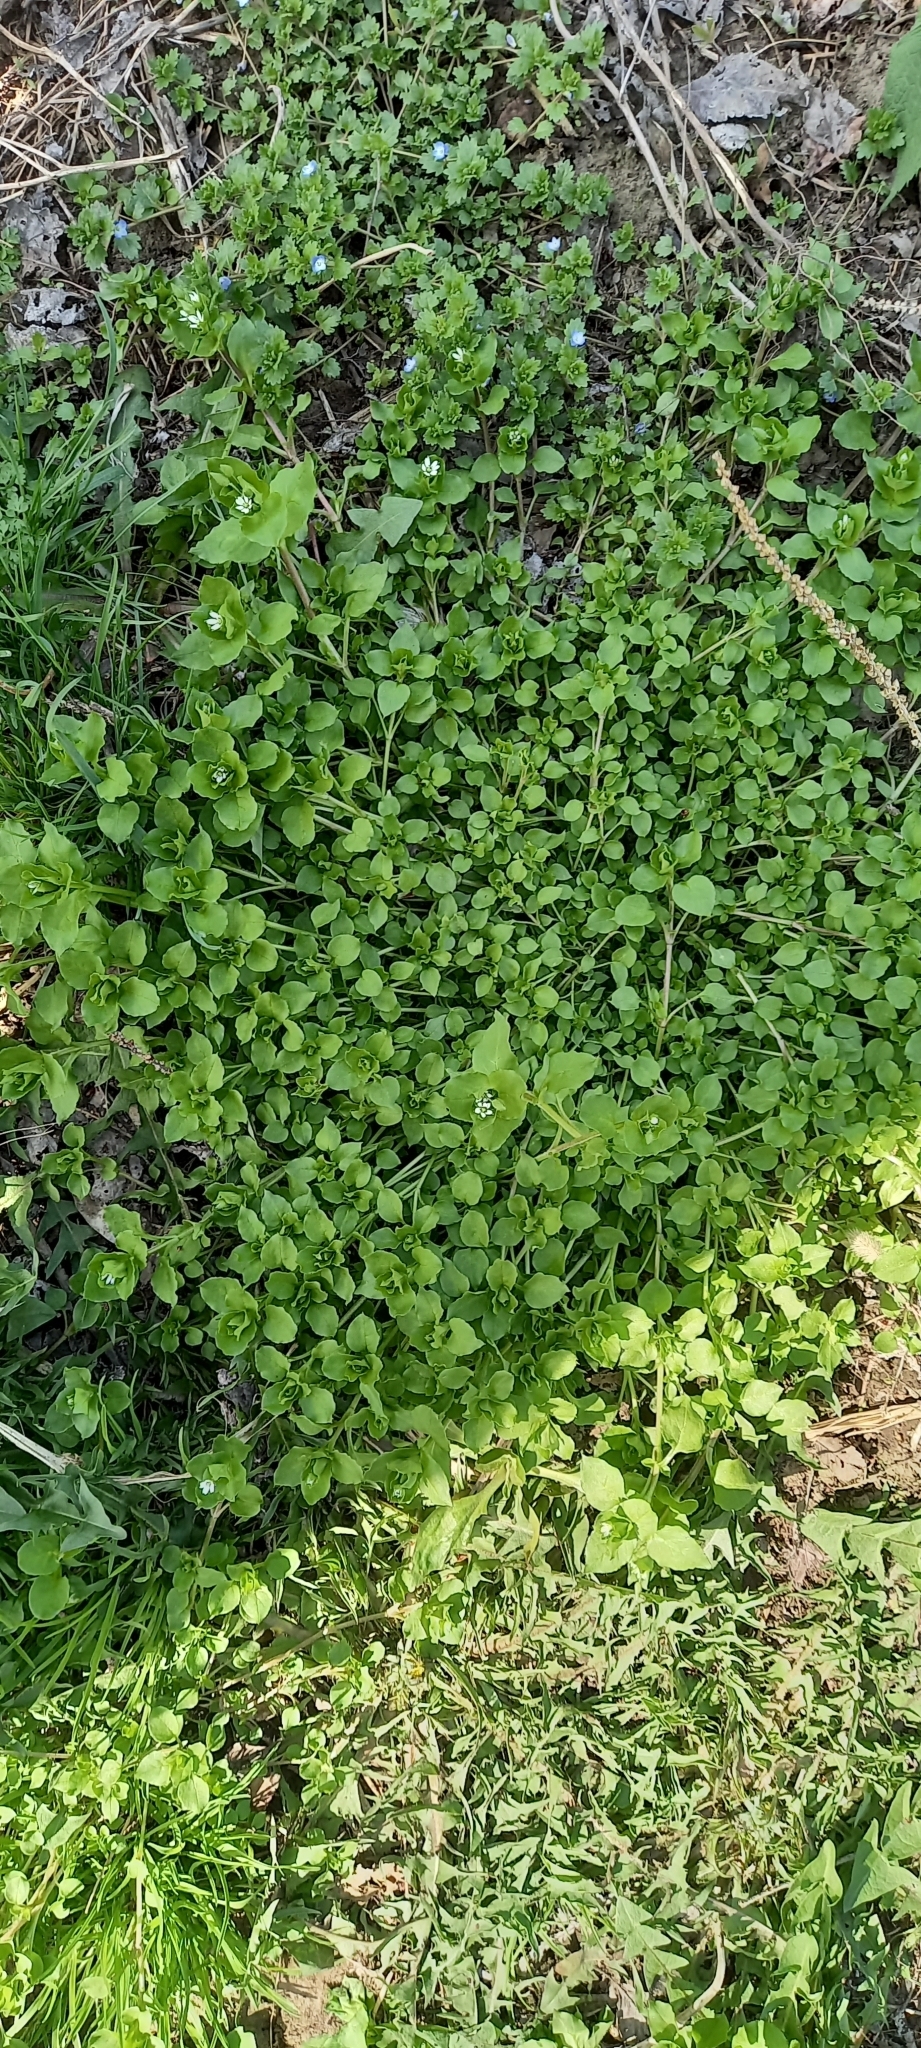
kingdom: Plantae
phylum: Tracheophyta
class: Magnoliopsida
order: Caryophyllales
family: Caryophyllaceae
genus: Stellaria
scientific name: Stellaria media
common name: Common chickweed
